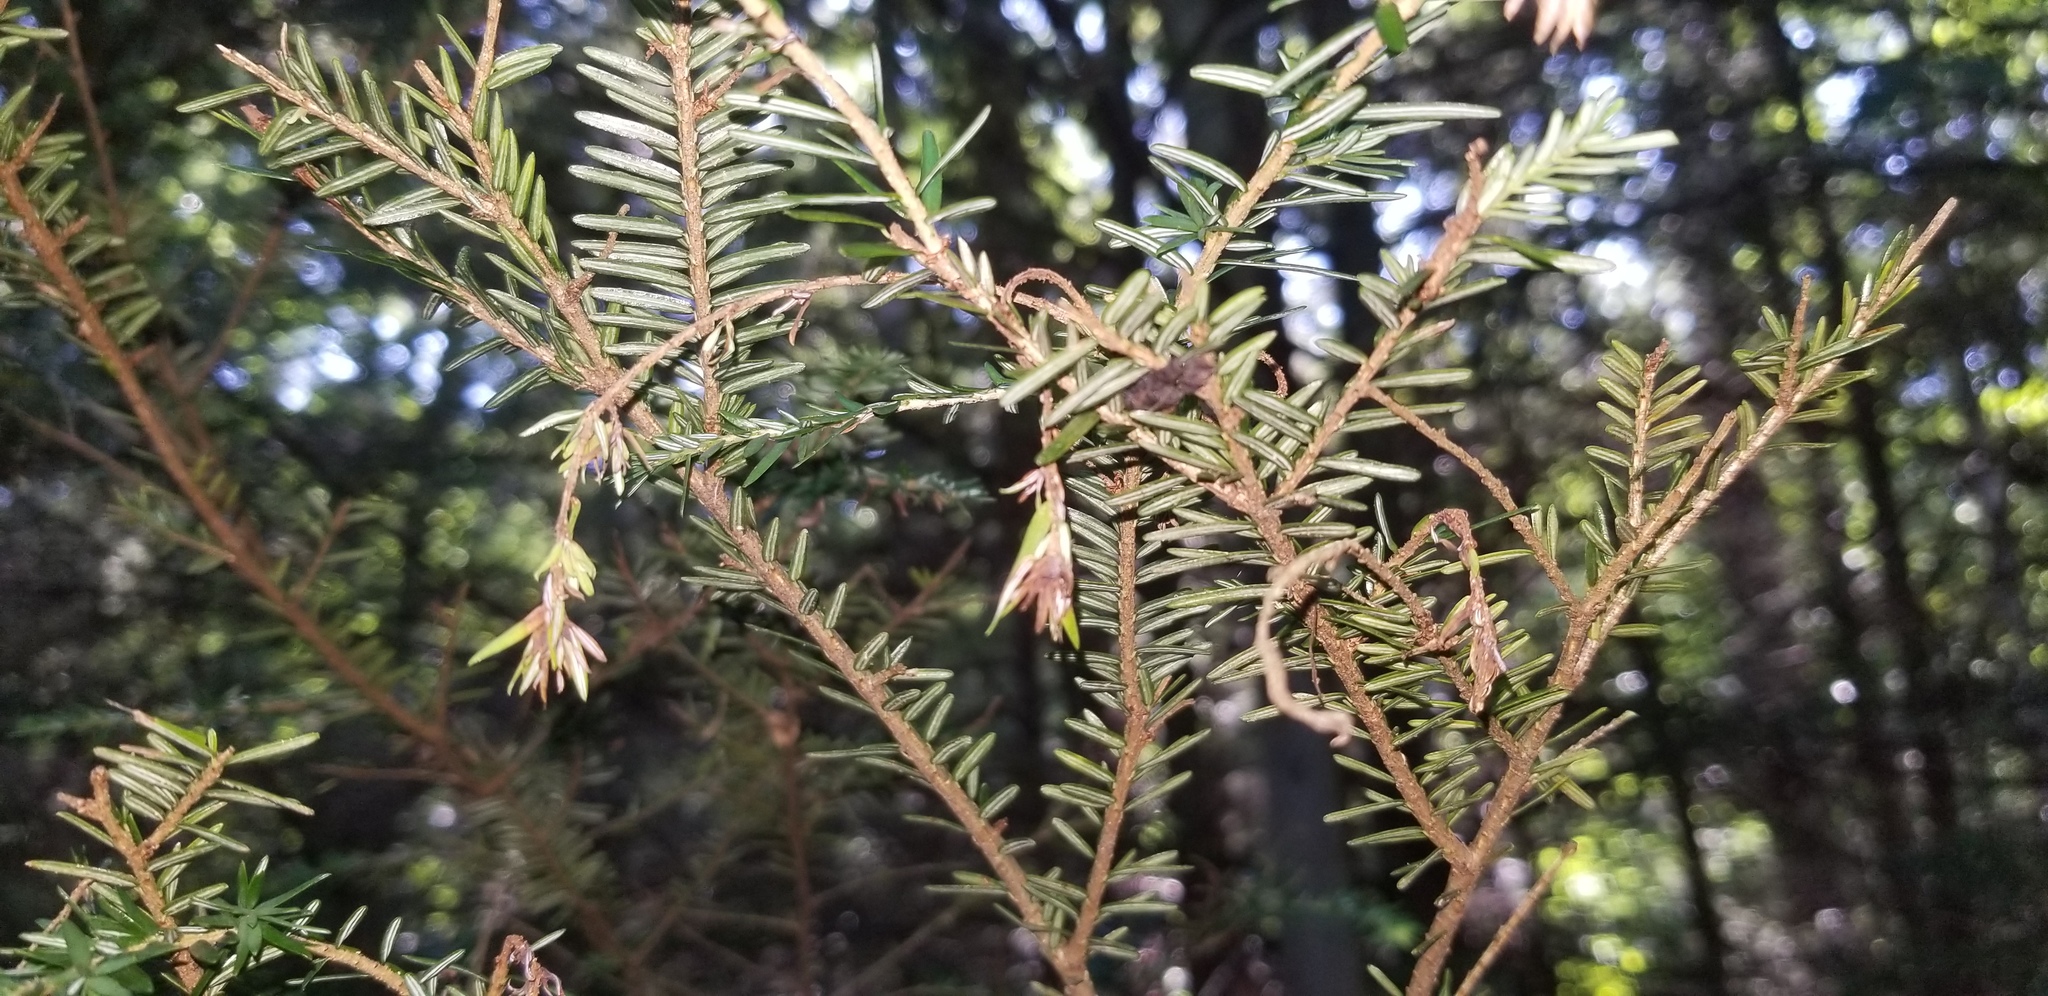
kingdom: Fungi
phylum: Ascomycota
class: Sordariomycetes
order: Diaporthales
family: Gnomoniaceae
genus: Sirococcus
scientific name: Sirococcus tsugae
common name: Cedar blight
